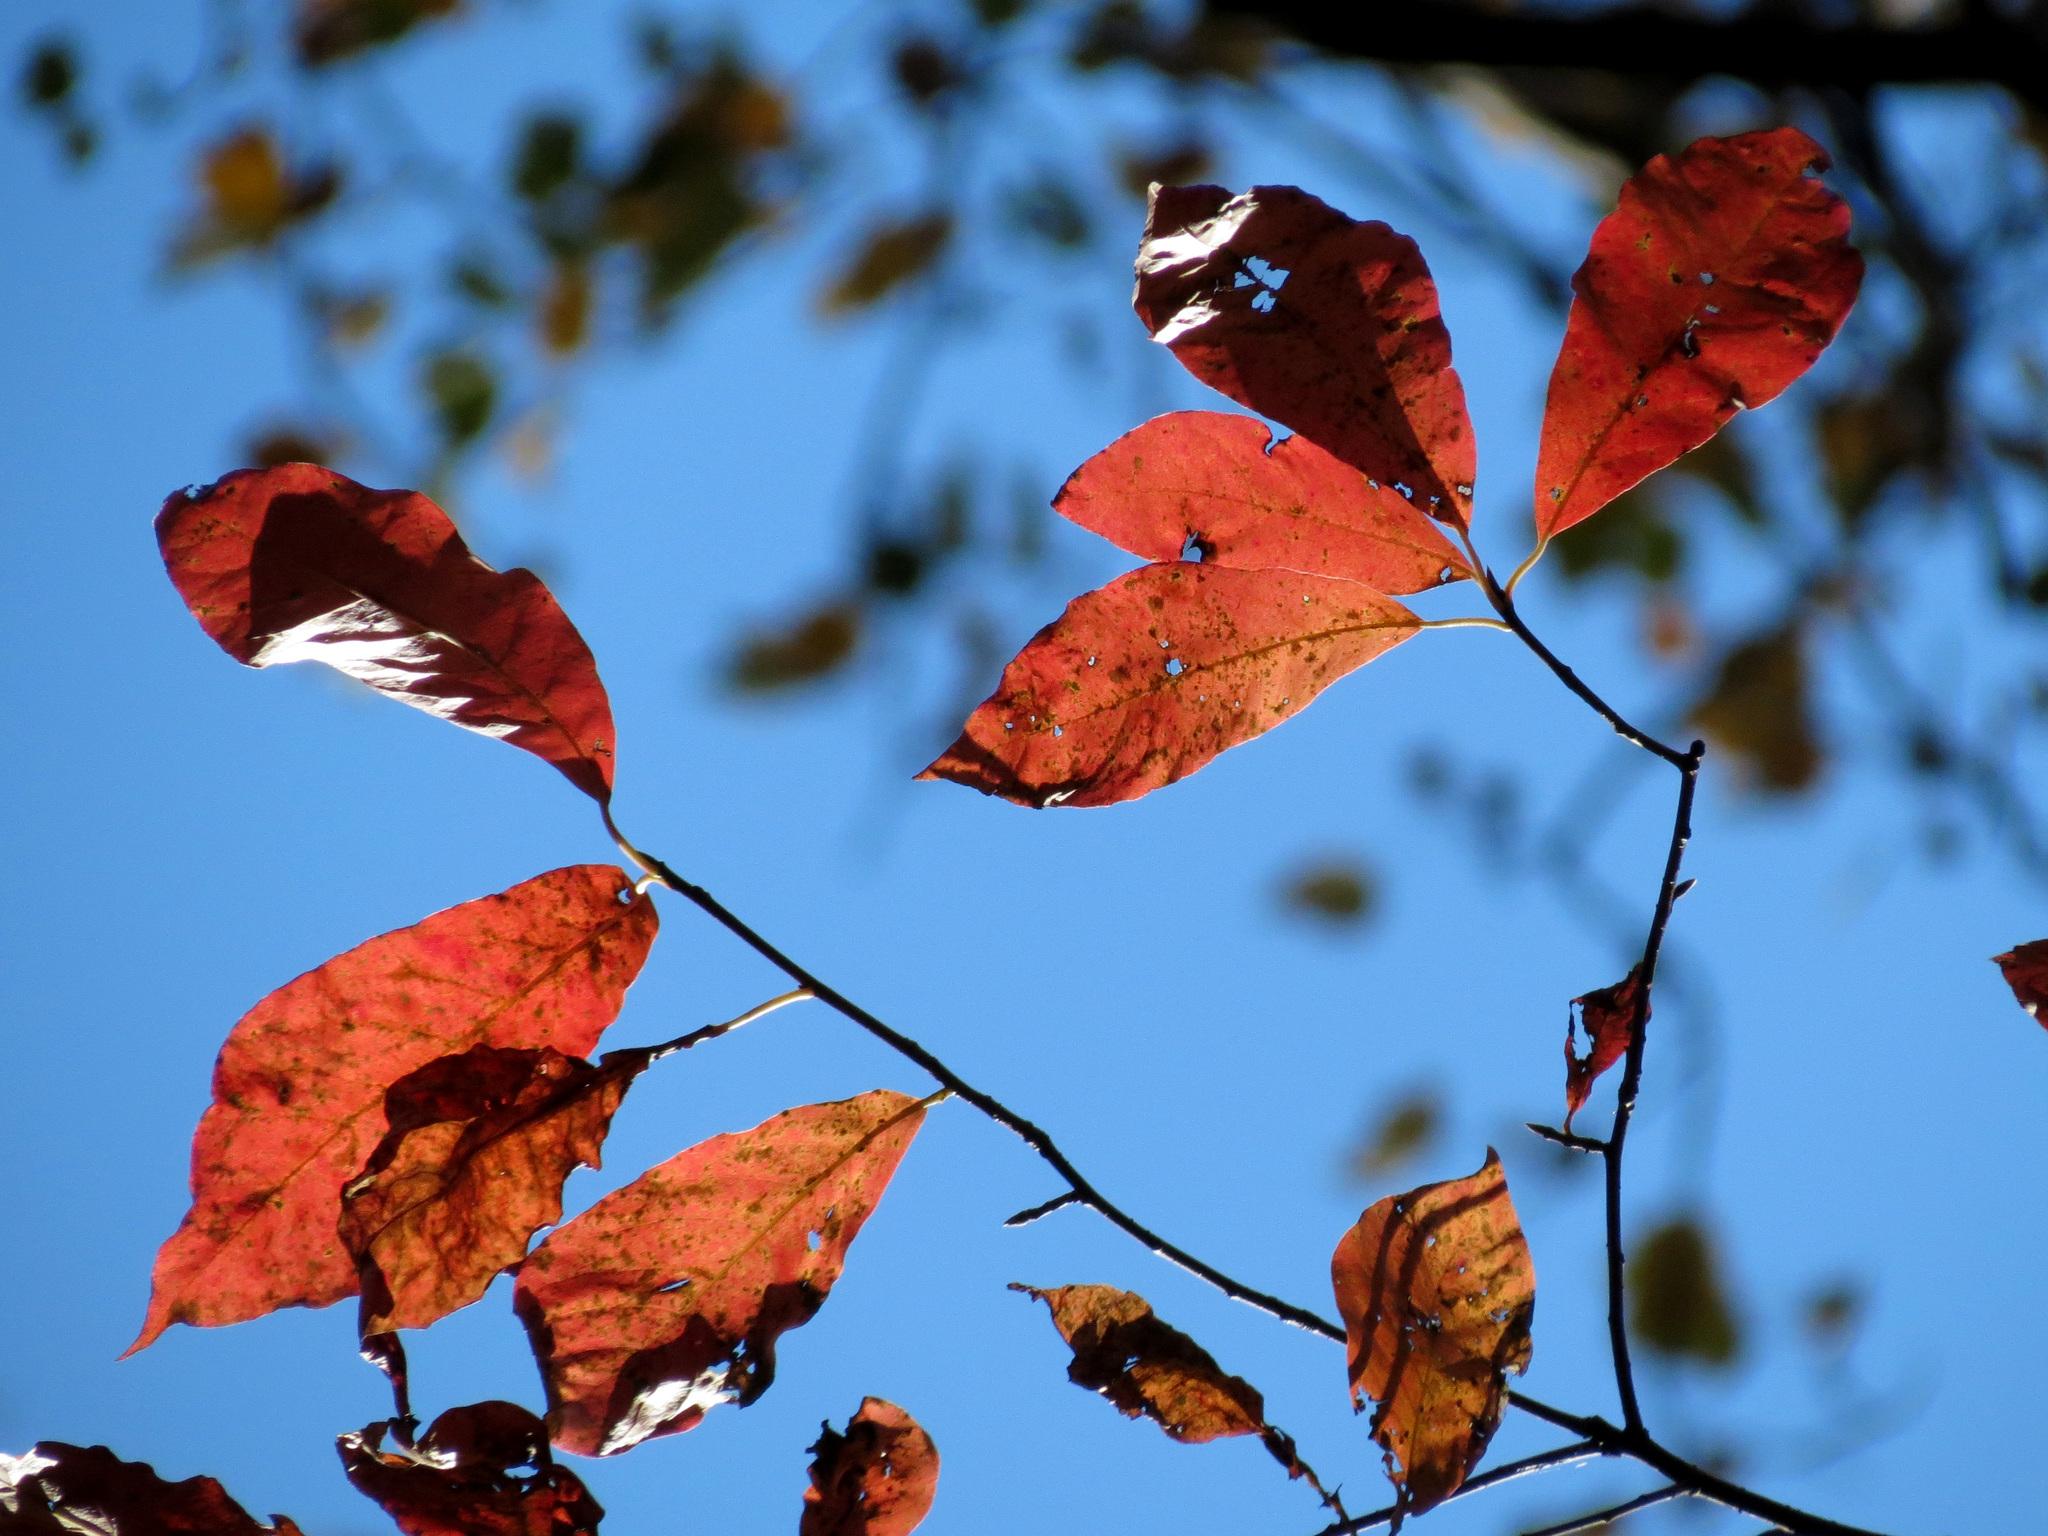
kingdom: Plantae
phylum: Tracheophyta
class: Magnoliopsida
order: Cornales
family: Nyssaceae
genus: Nyssa
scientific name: Nyssa sylvatica
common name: Black tupelo
